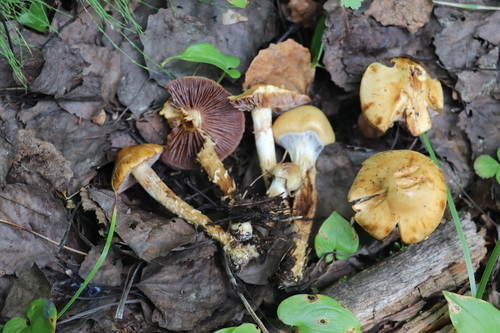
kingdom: Fungi
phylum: Basidiomycota
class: Agaricomycetes
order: Agaricales
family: Cortinariaceae
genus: Cortinarius
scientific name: Cortinarius trivialis
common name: Girdled webcap
